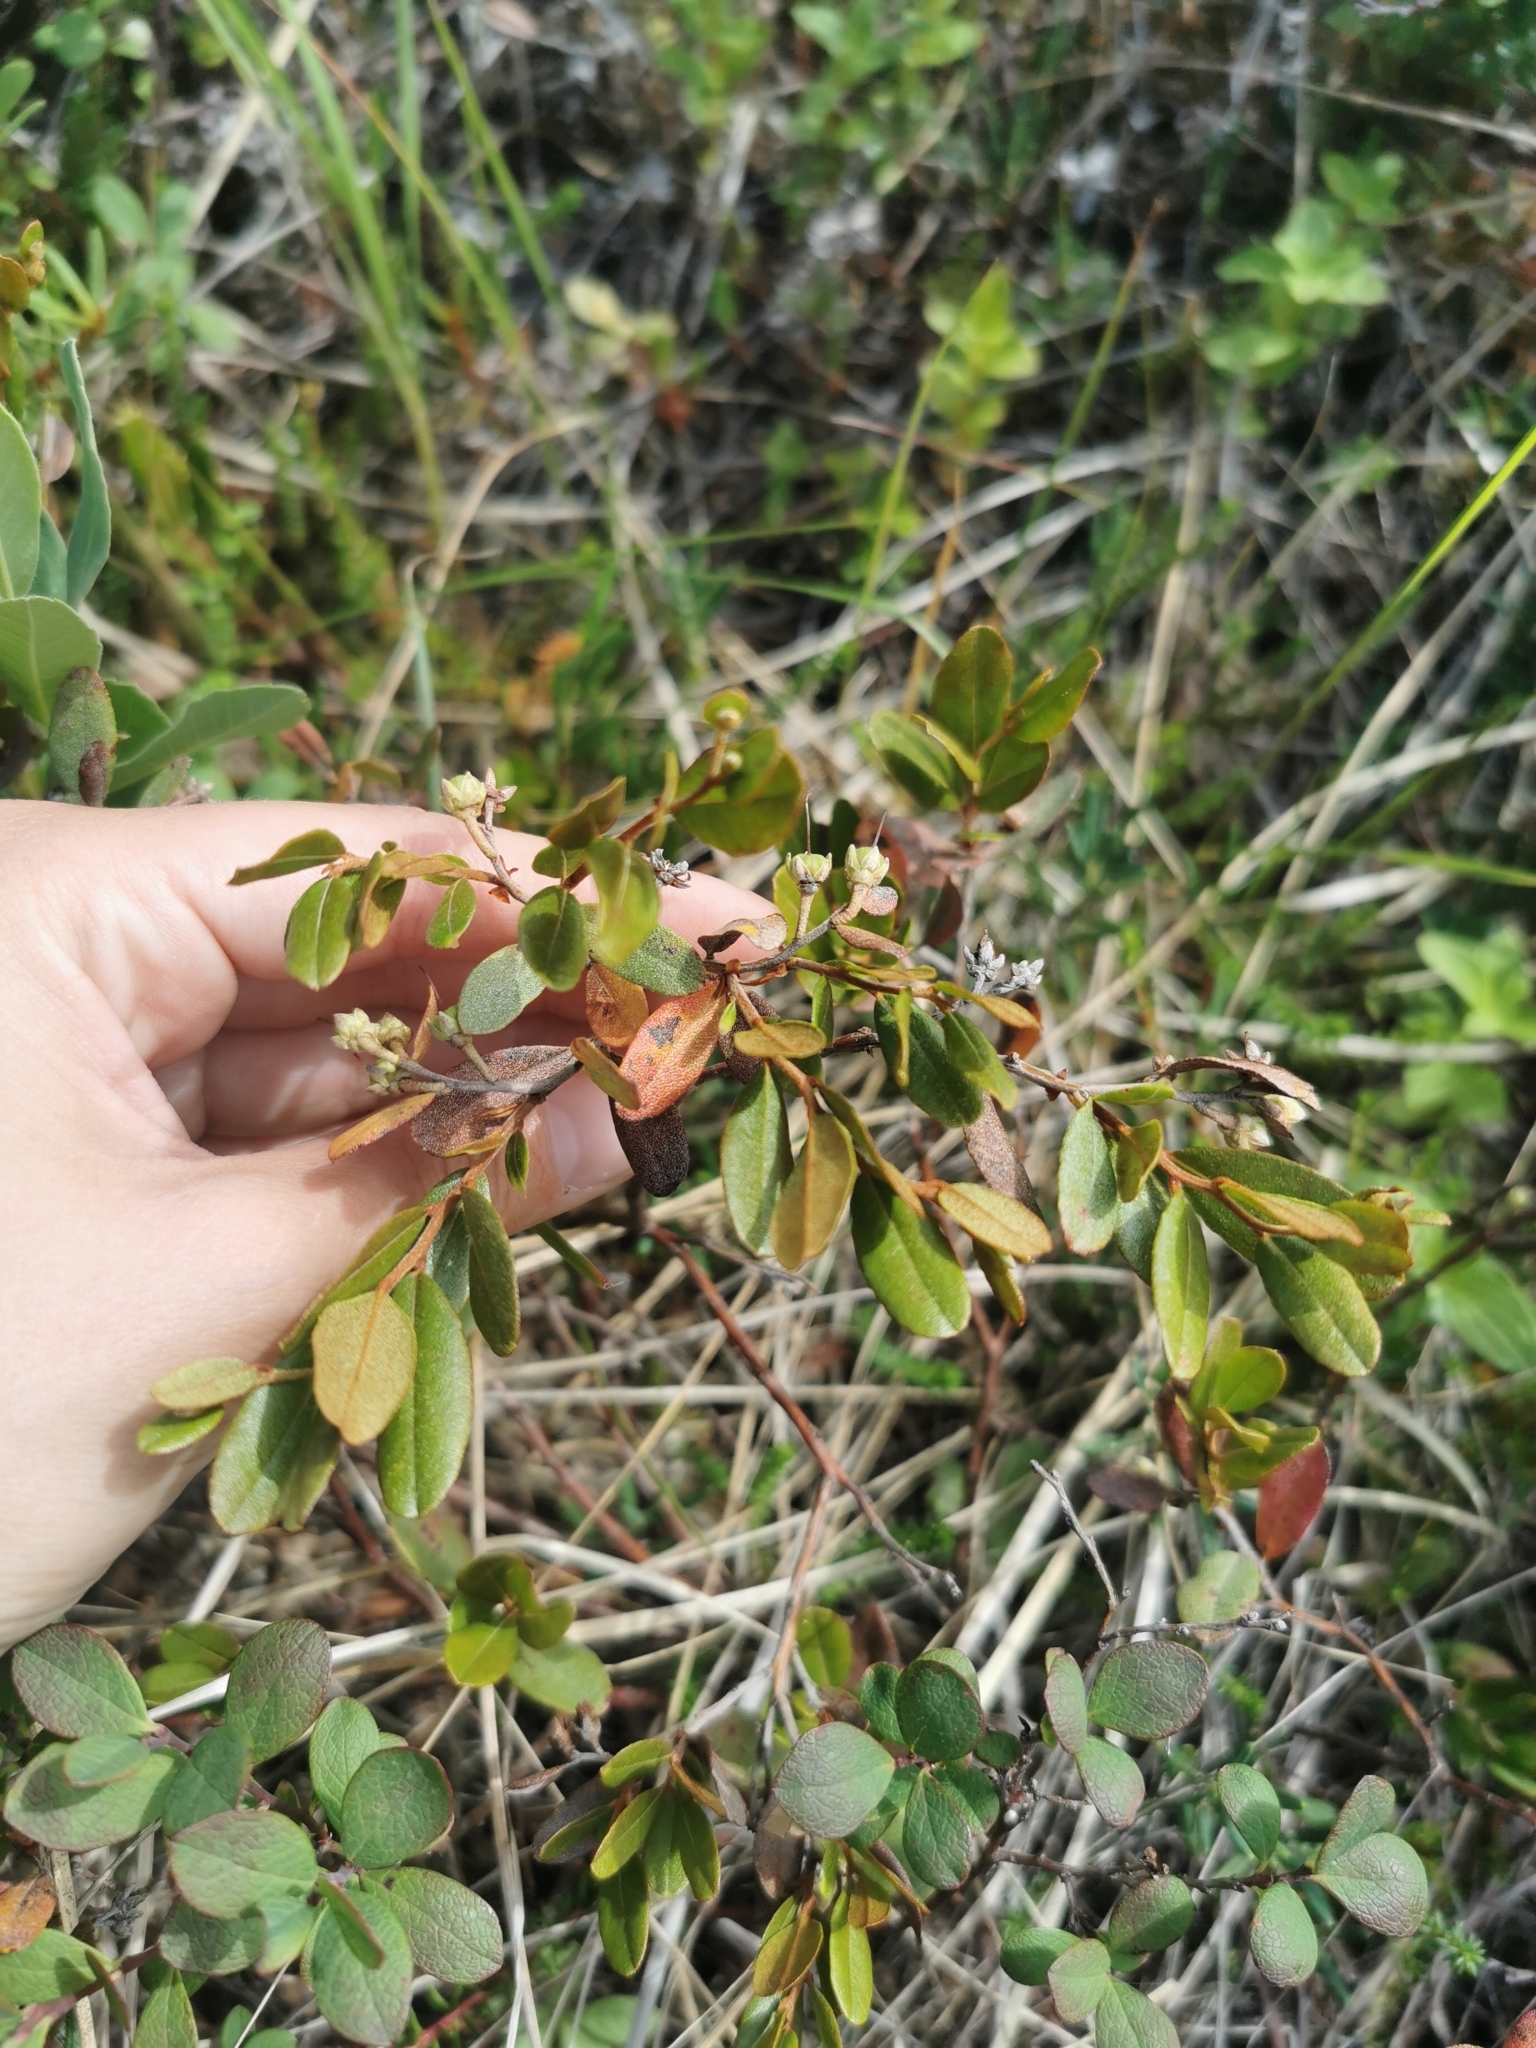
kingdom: Plantae
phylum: Tracheophyta
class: Magnoliopsida
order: Ericales
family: Ericaceae
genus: Chamaedaphne
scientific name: Chamaedaphne calyculata
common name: Leatherleaf
